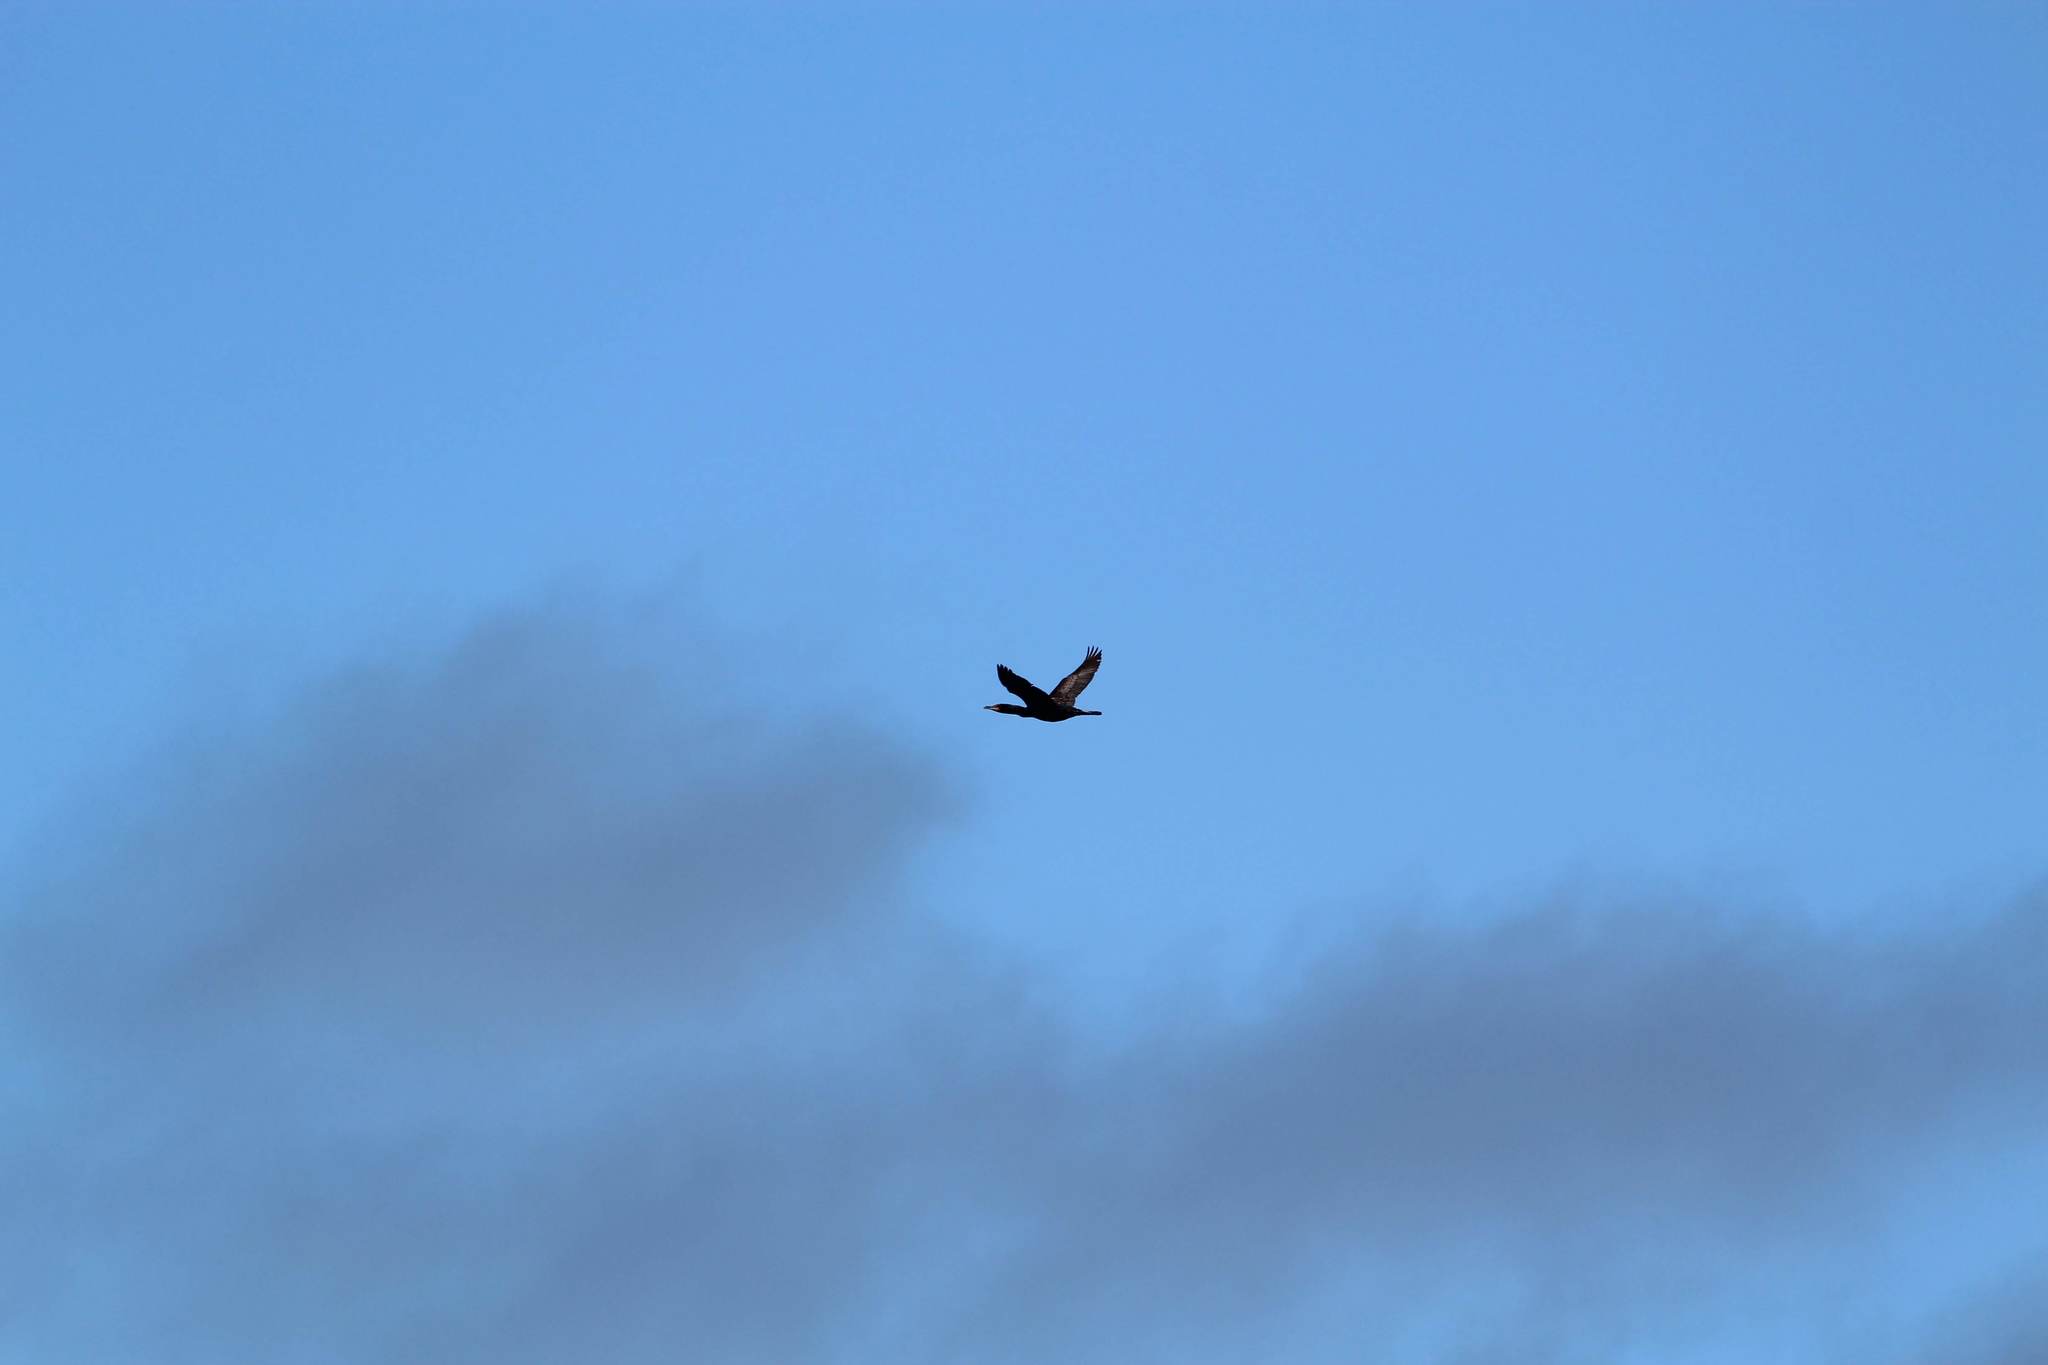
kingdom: Animalia
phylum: Chordata
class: Aves
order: Suliformes
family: Phalacrocoracidae
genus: Phalacrocorax
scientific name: Phalacrocorax auritus
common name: Double-crested cormorant
